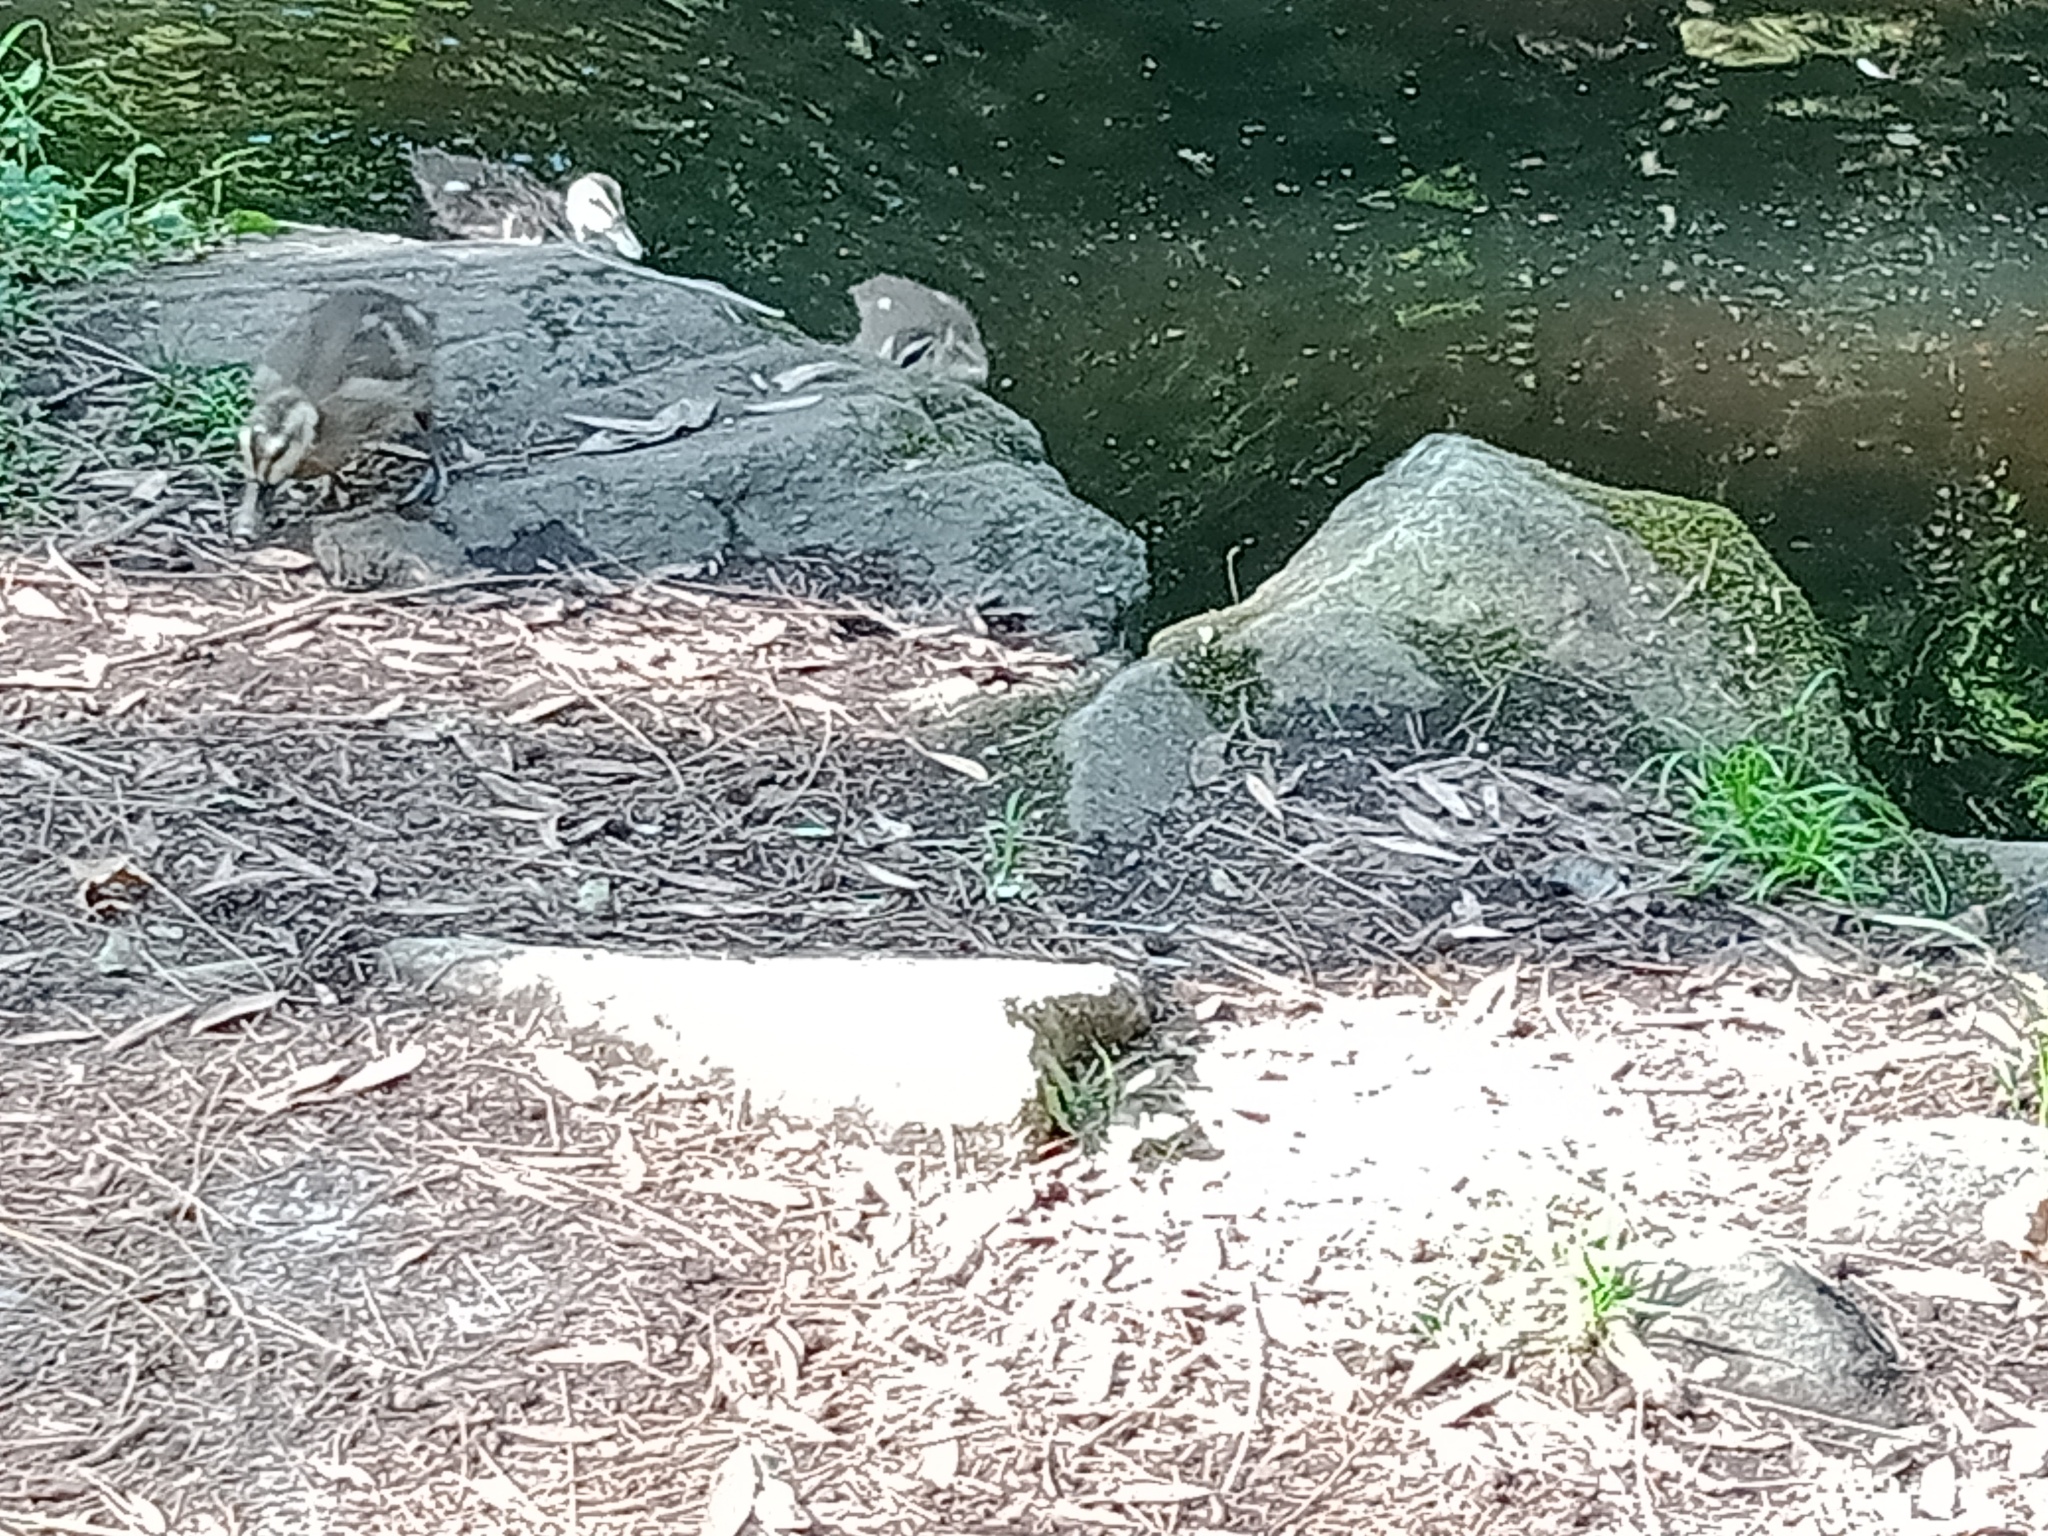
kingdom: Animalia
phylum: Chordata
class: Aves
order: Anseriformes
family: Anatidae
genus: Anas
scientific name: Anas superciliosa
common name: Pacific black duck
